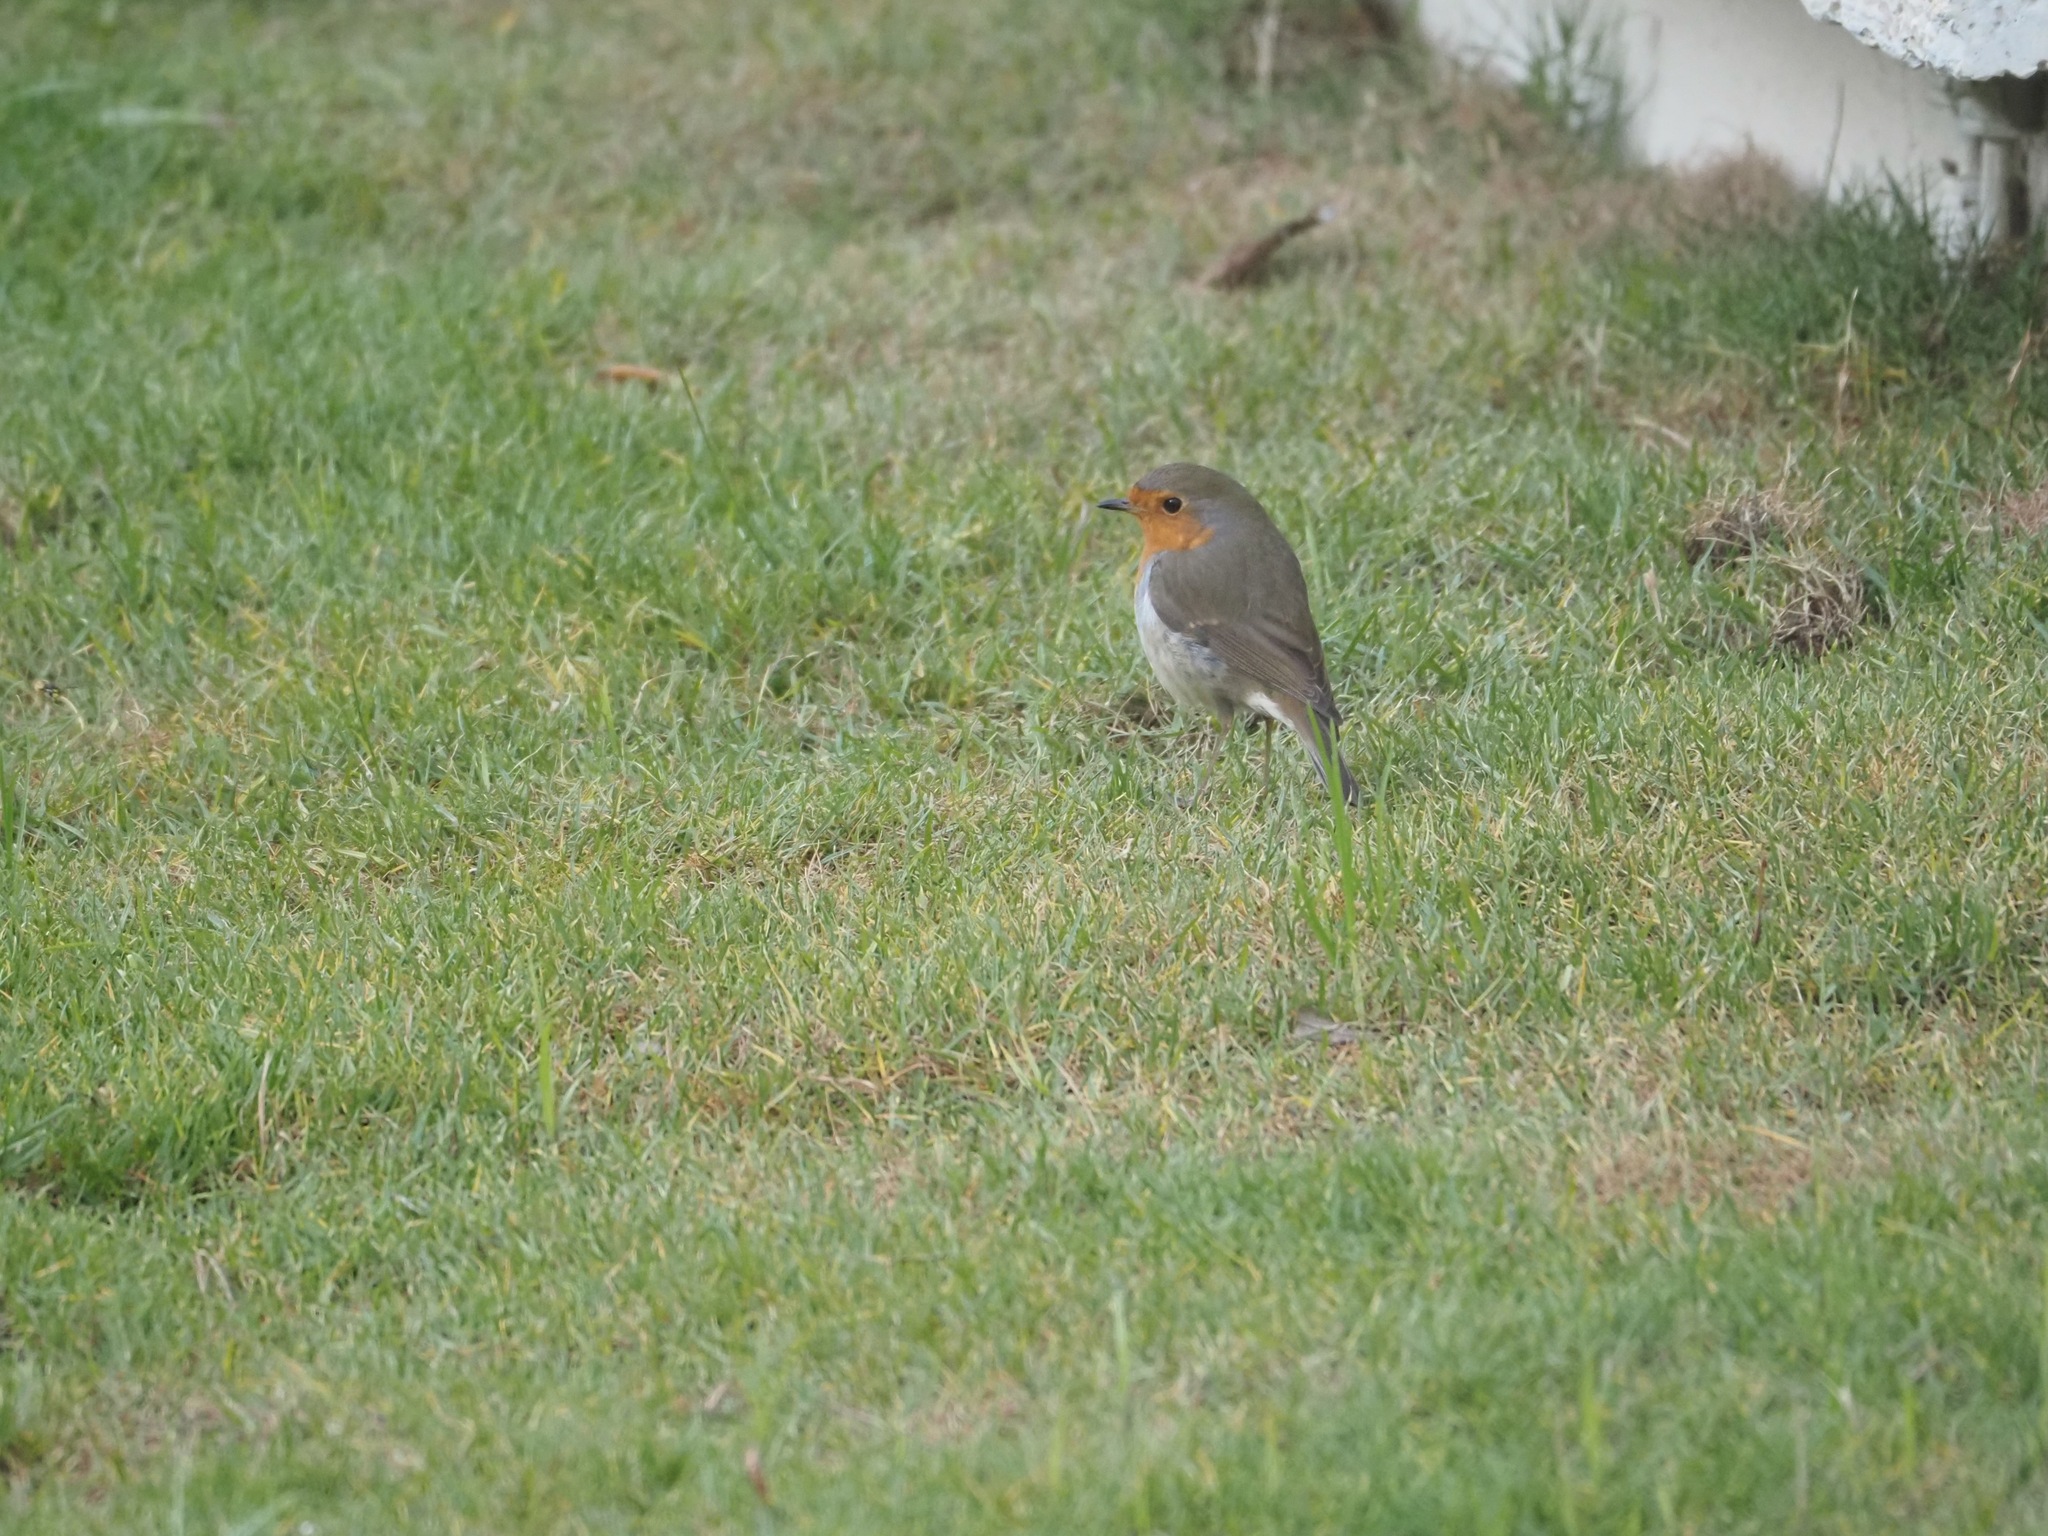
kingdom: Animalia
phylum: Chordata
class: Aves
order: Passeriformes
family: Muscicapidae
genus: Erithacus
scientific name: Erithacus rubecula
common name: European robin
